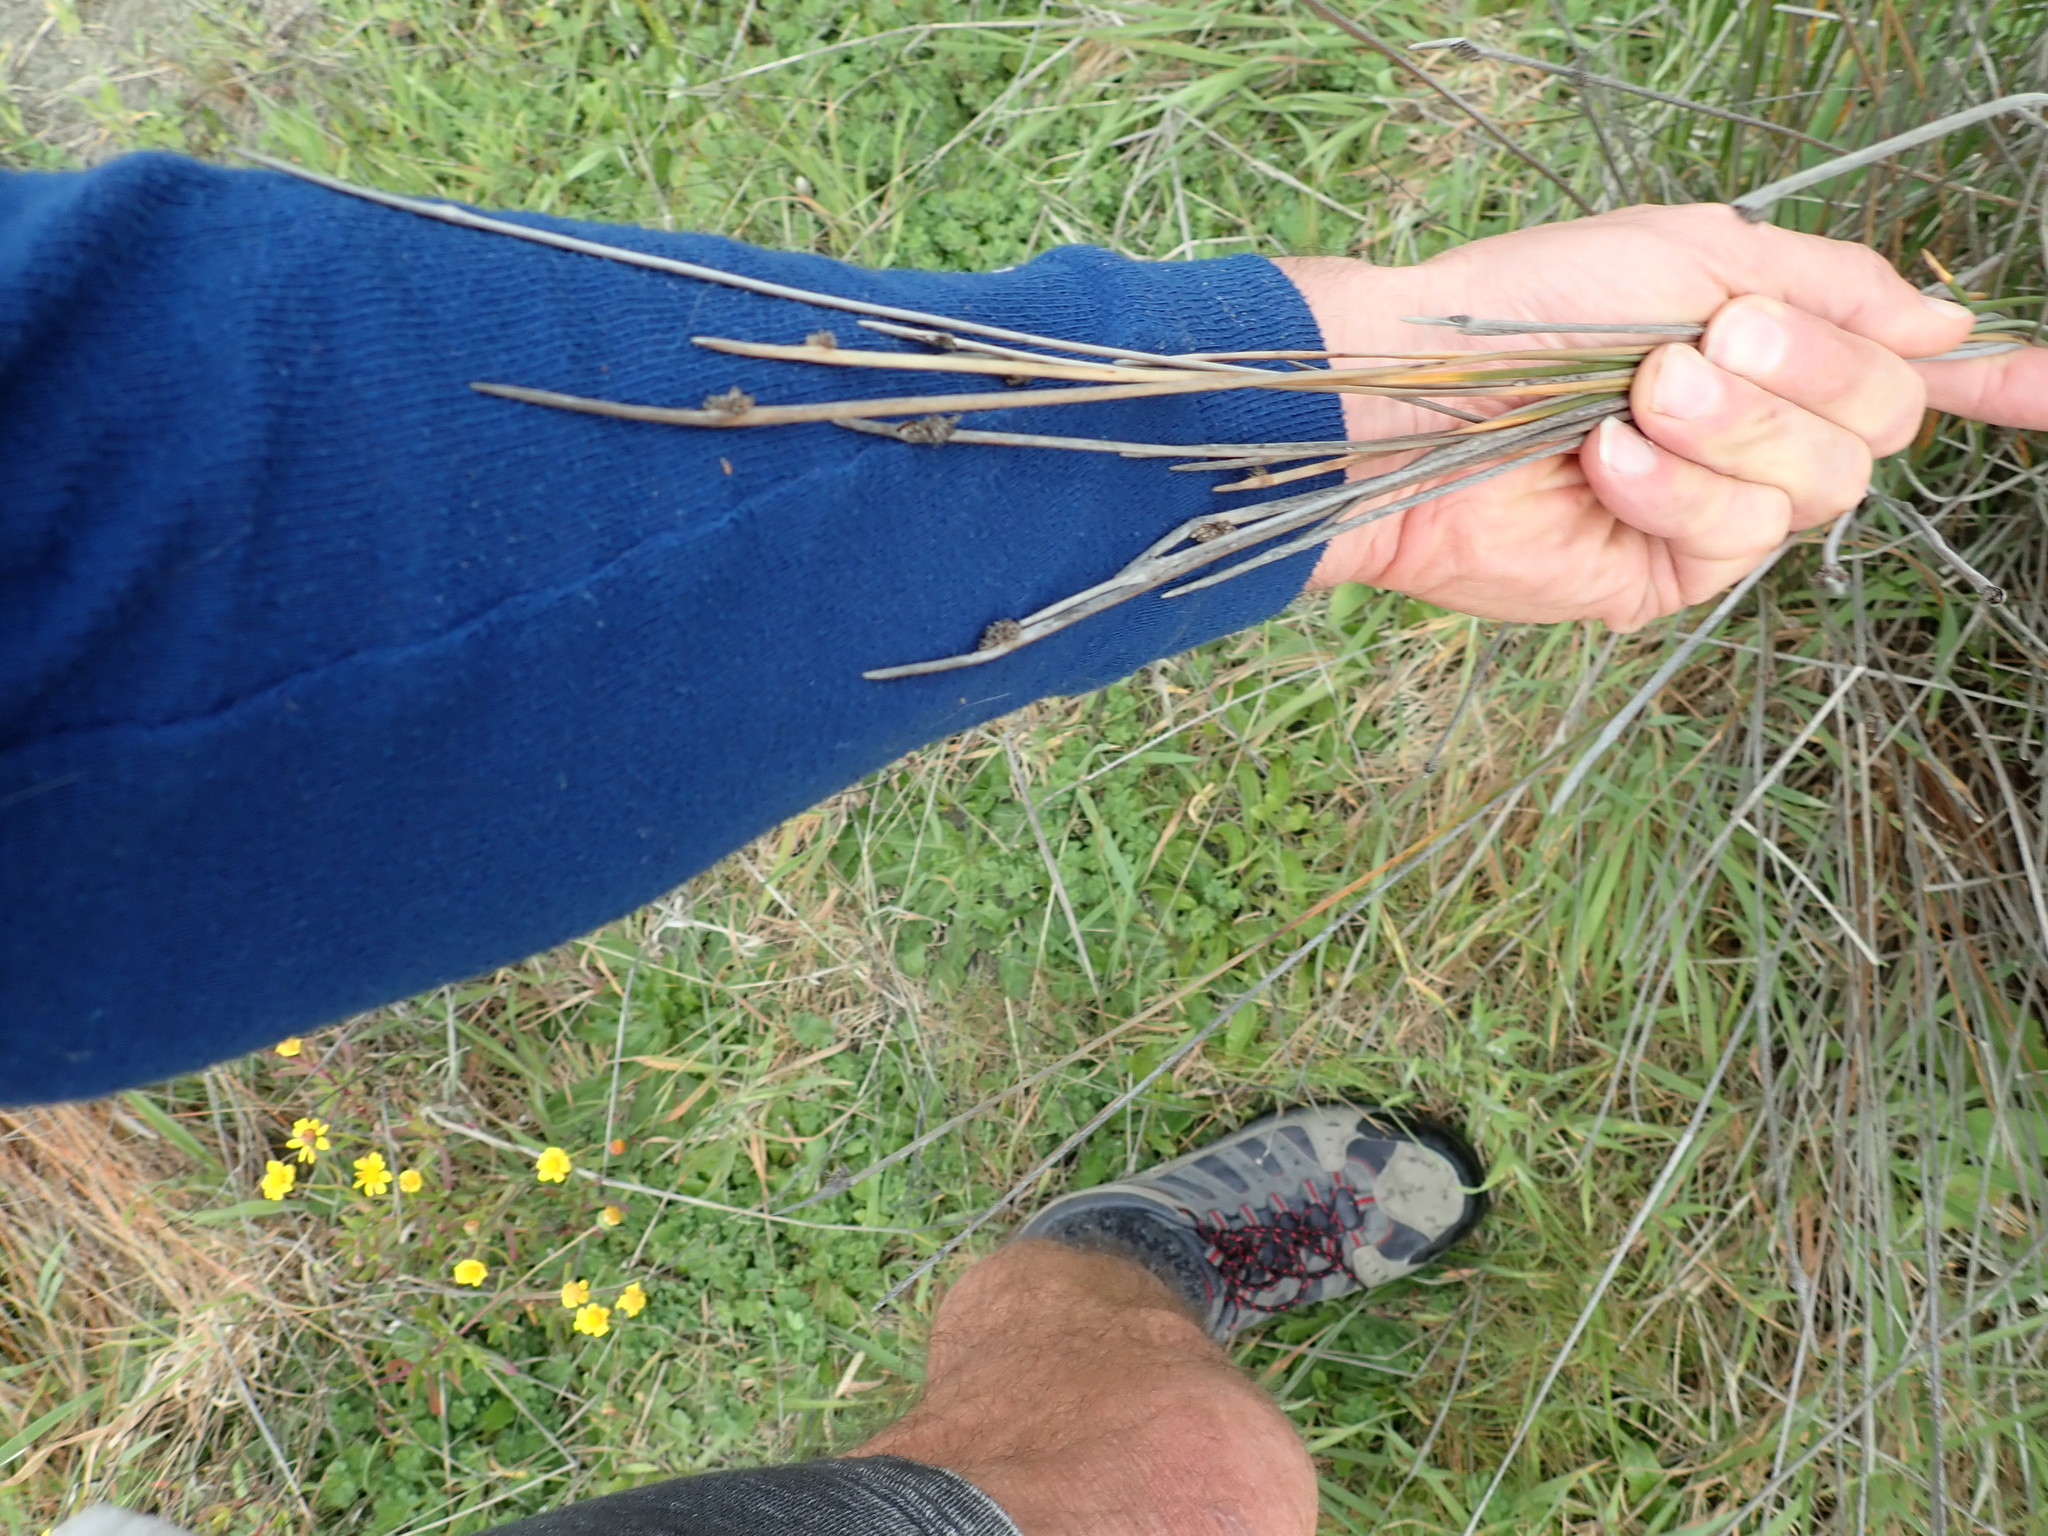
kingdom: Plantae
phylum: Tracheophyta
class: Liliopsida
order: Poales
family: Cyperaceae
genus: Ficinia
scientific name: Ficinia nodosa
